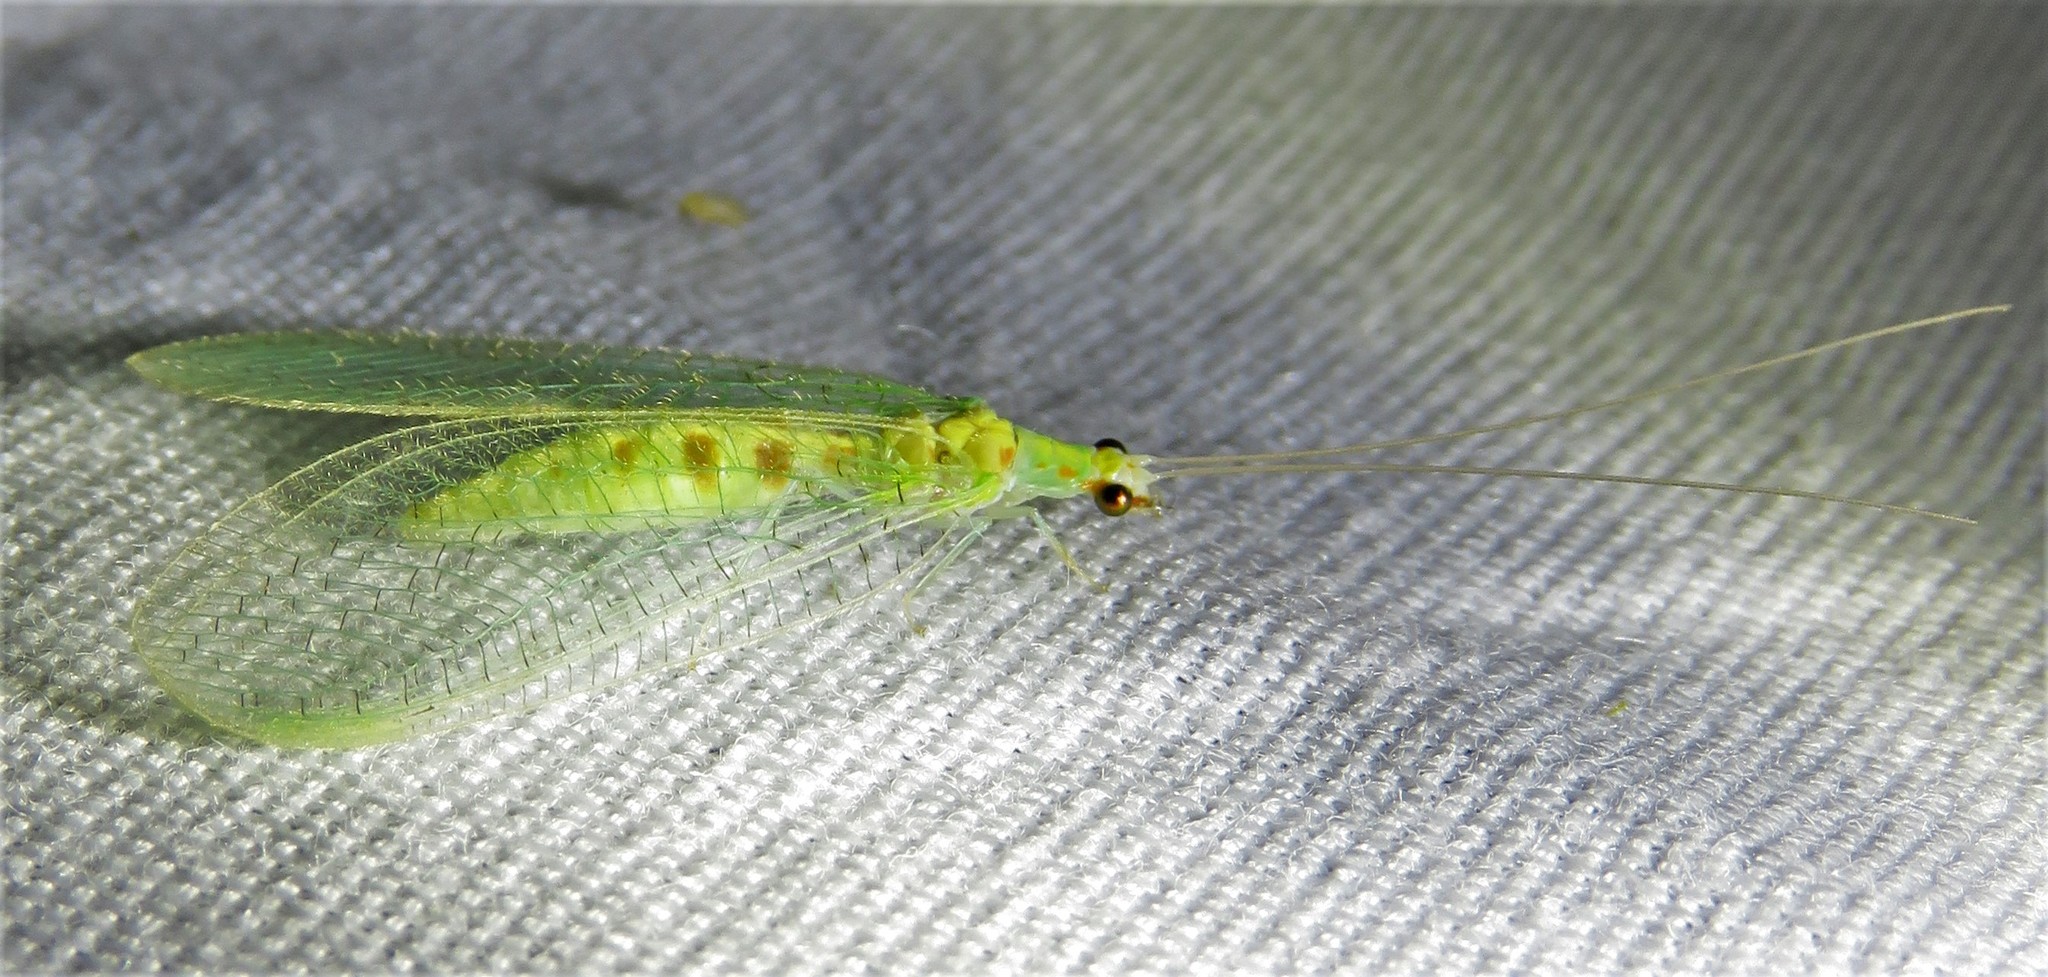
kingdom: Animalia
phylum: Arthropoda
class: Insecta
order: Neuroptera
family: Chrysopidae
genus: Chrysopa
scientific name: Chrysopa quadripunctata
